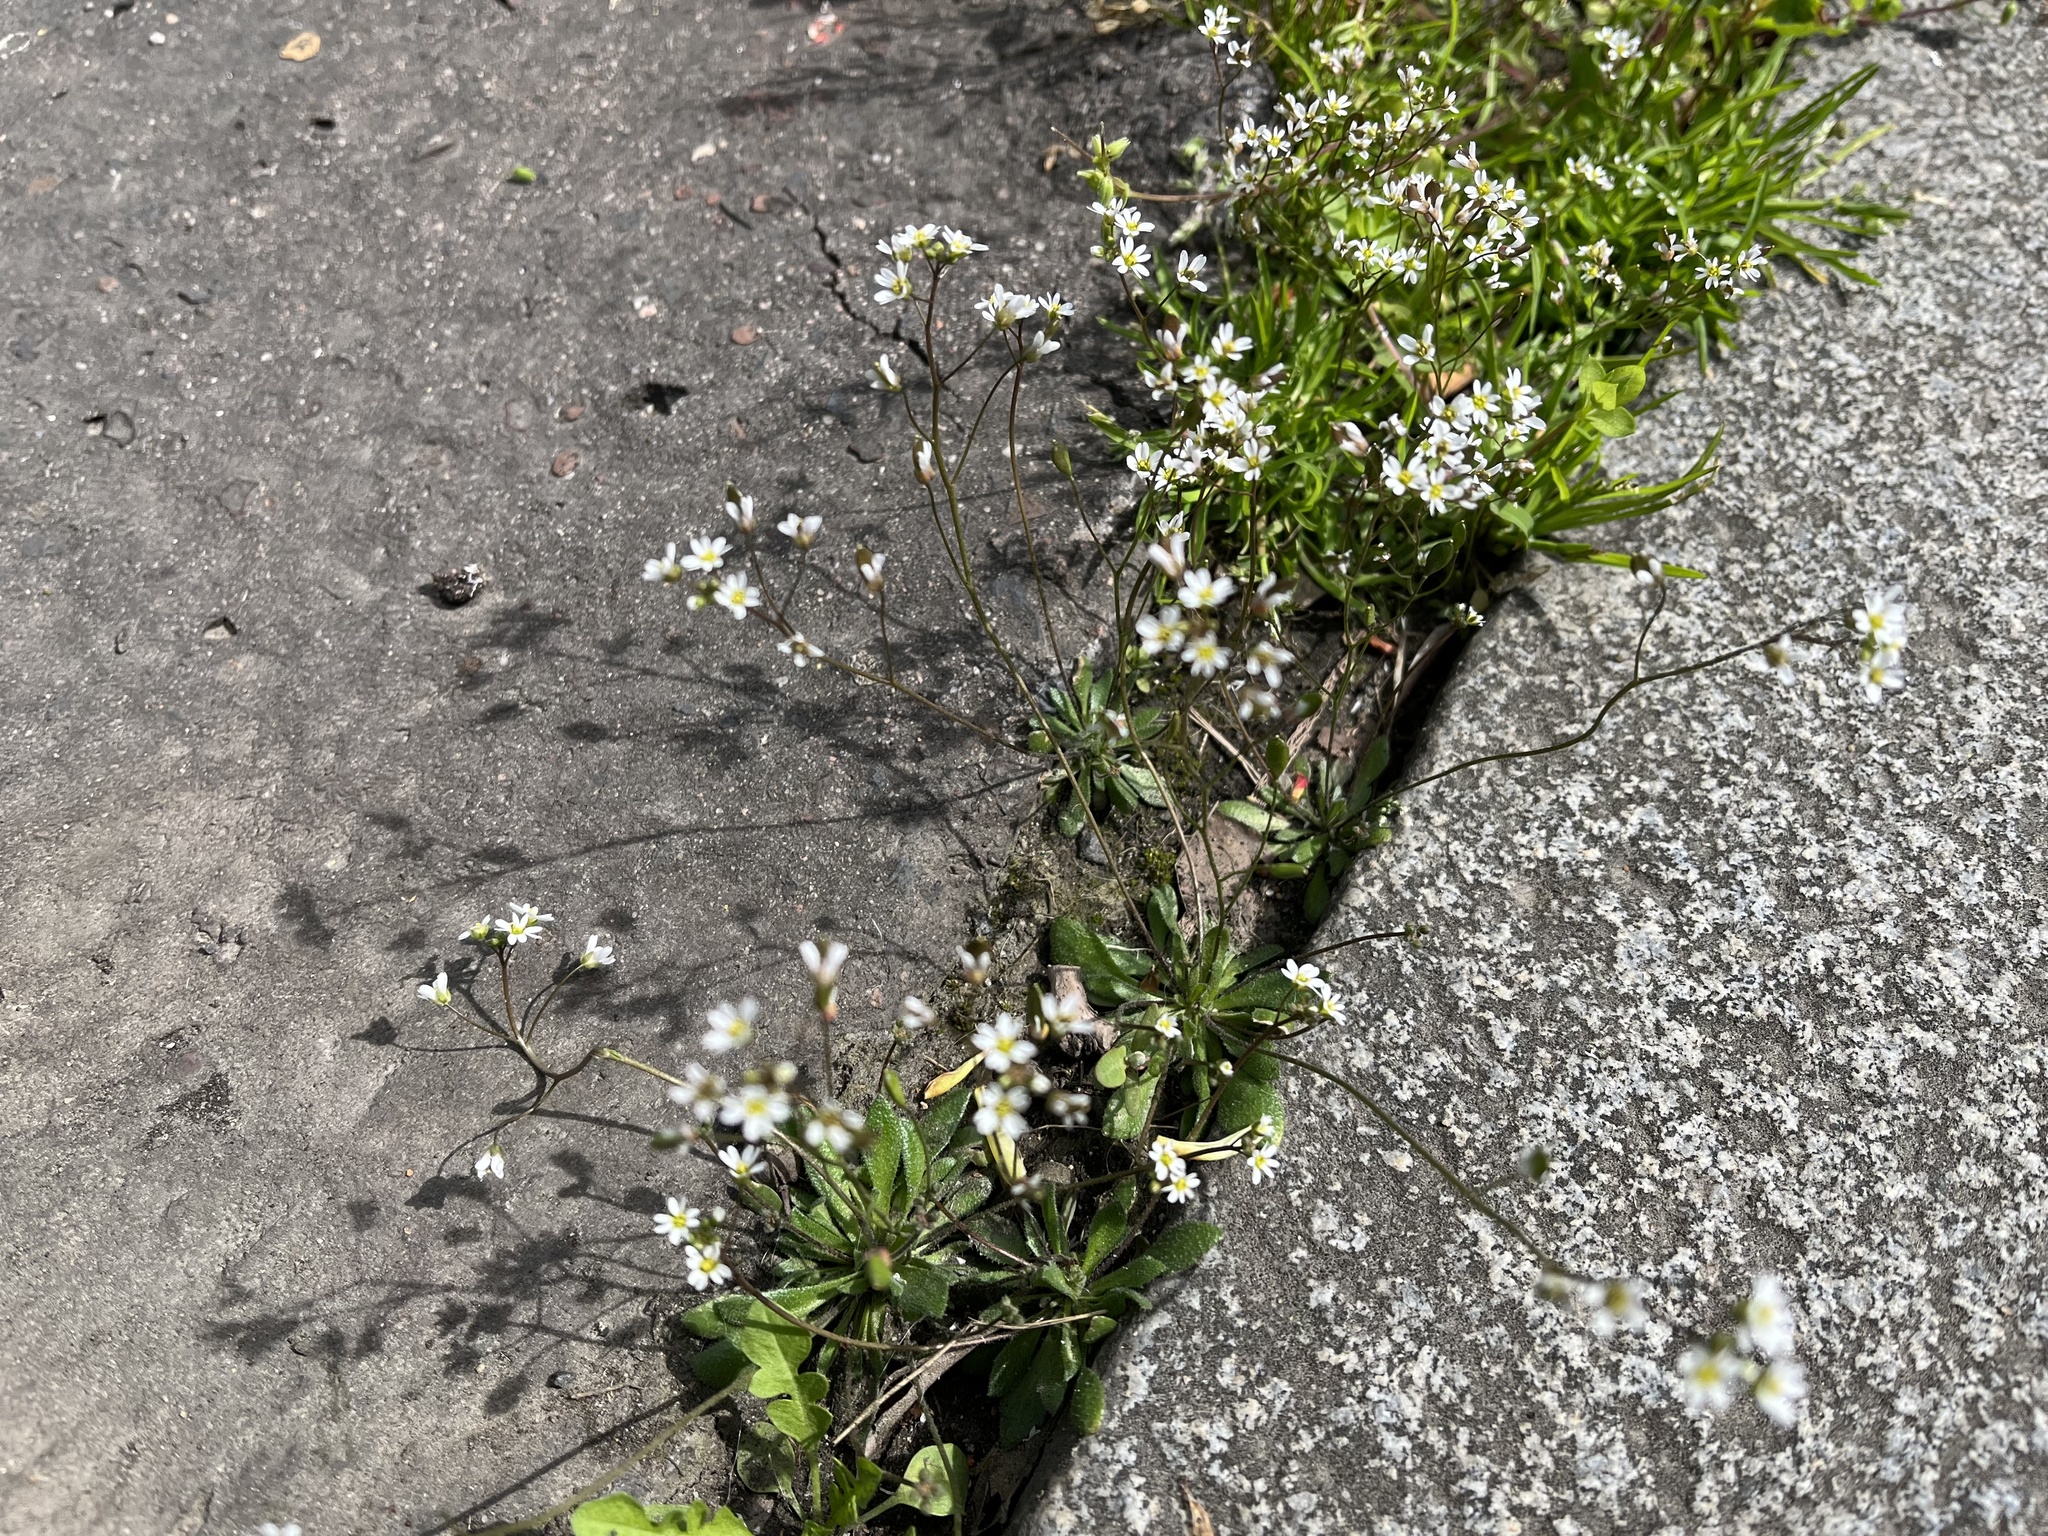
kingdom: Plantae
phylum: Tracheophyta
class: Magnoliopsida
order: Brassicales
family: Brassicaceae
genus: Draba
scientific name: Draba verna
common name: Spring draba
